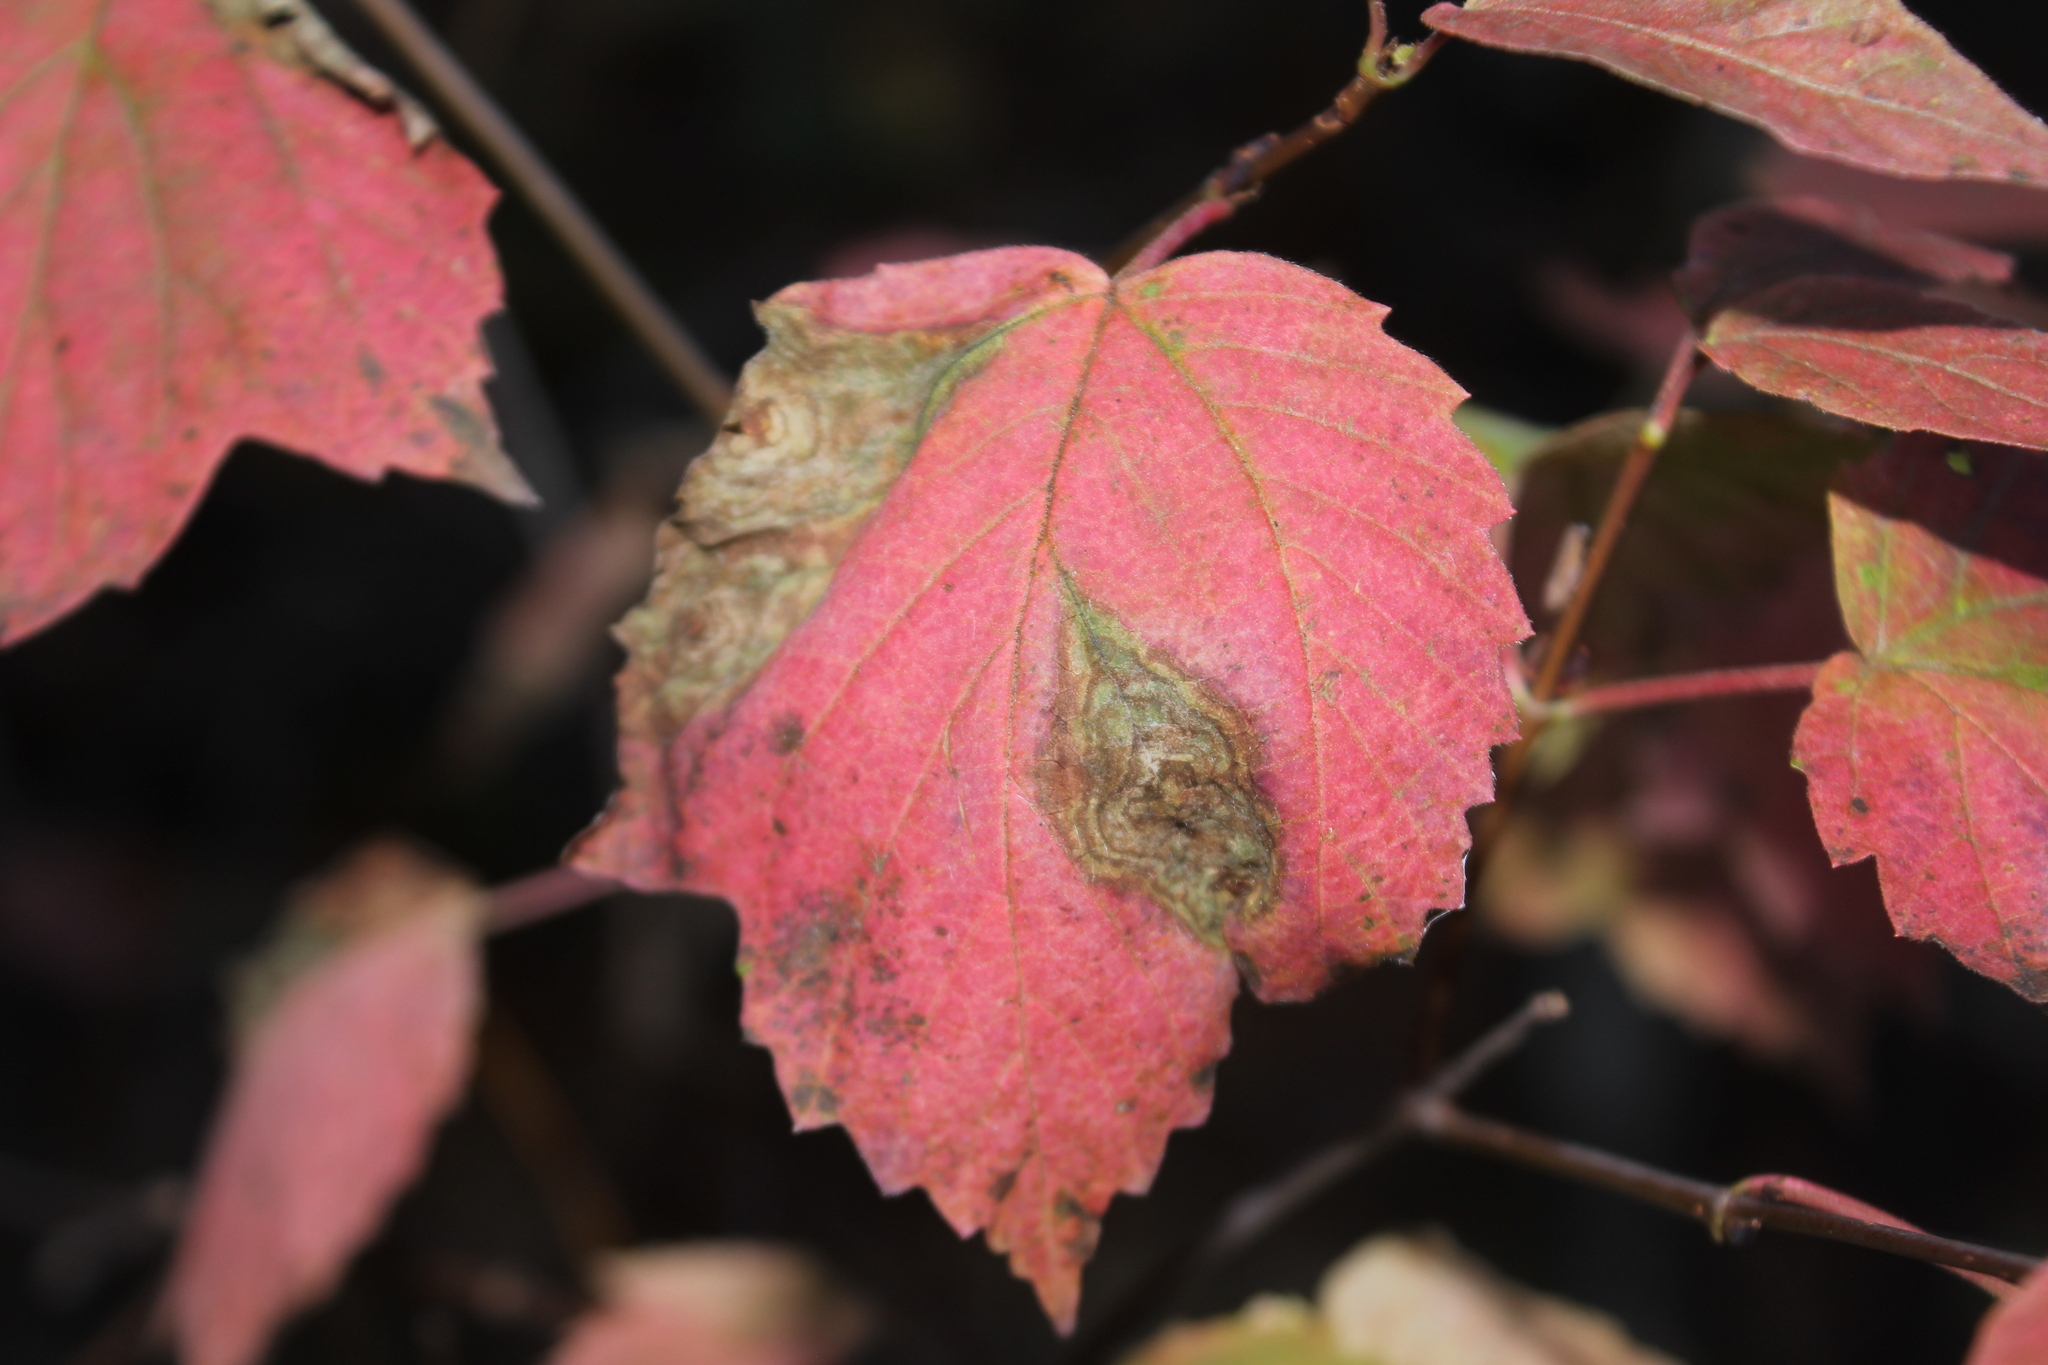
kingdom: Plantae
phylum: Tracheophyta
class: Magnoliopsida
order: Dipsacales
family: Viburnaceae
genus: Viburnum
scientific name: Viburnum acerifolium
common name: Dockmackie
